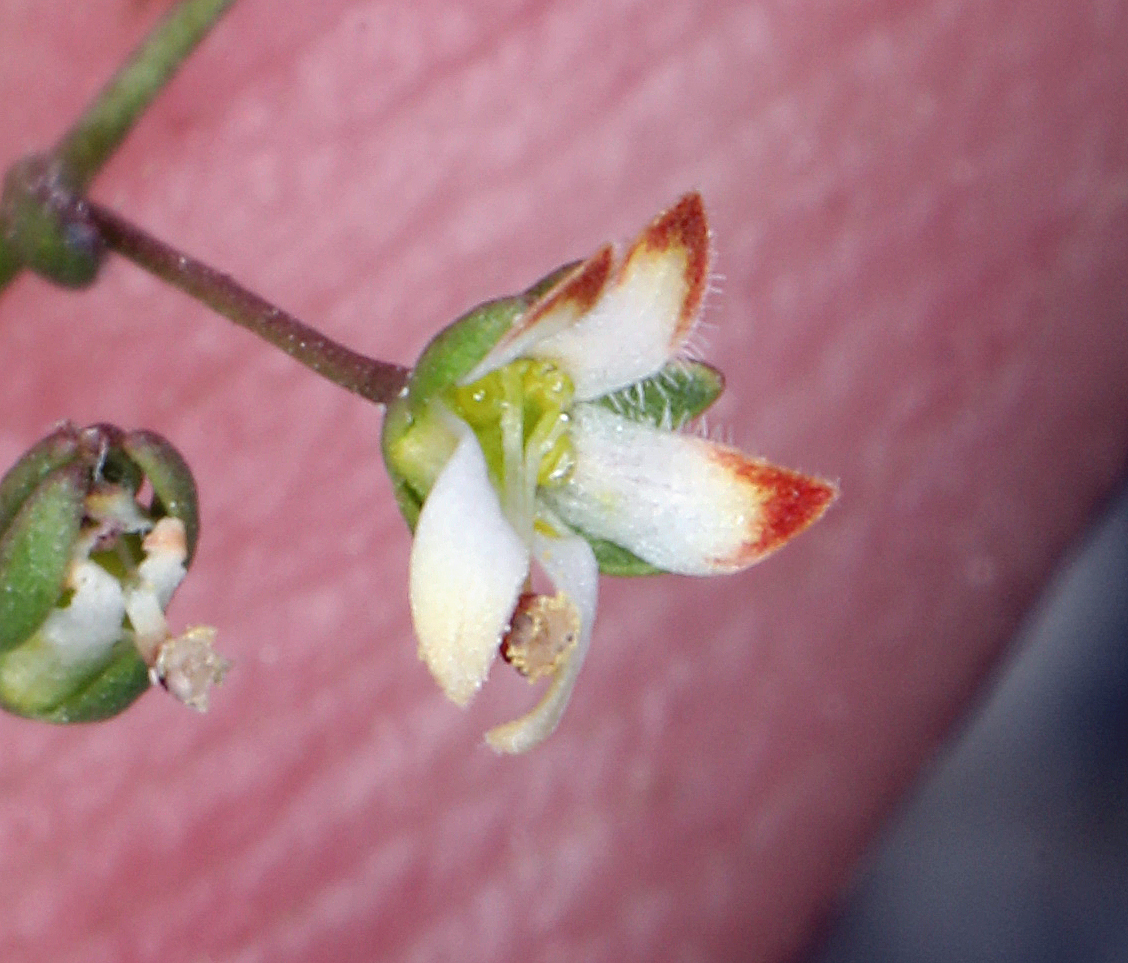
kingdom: Plantae
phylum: Tracheophyta
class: Magnoliopsida
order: Asterales
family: Campanulaceae
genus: Nemacladus
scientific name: Nemacladus morefieldii
